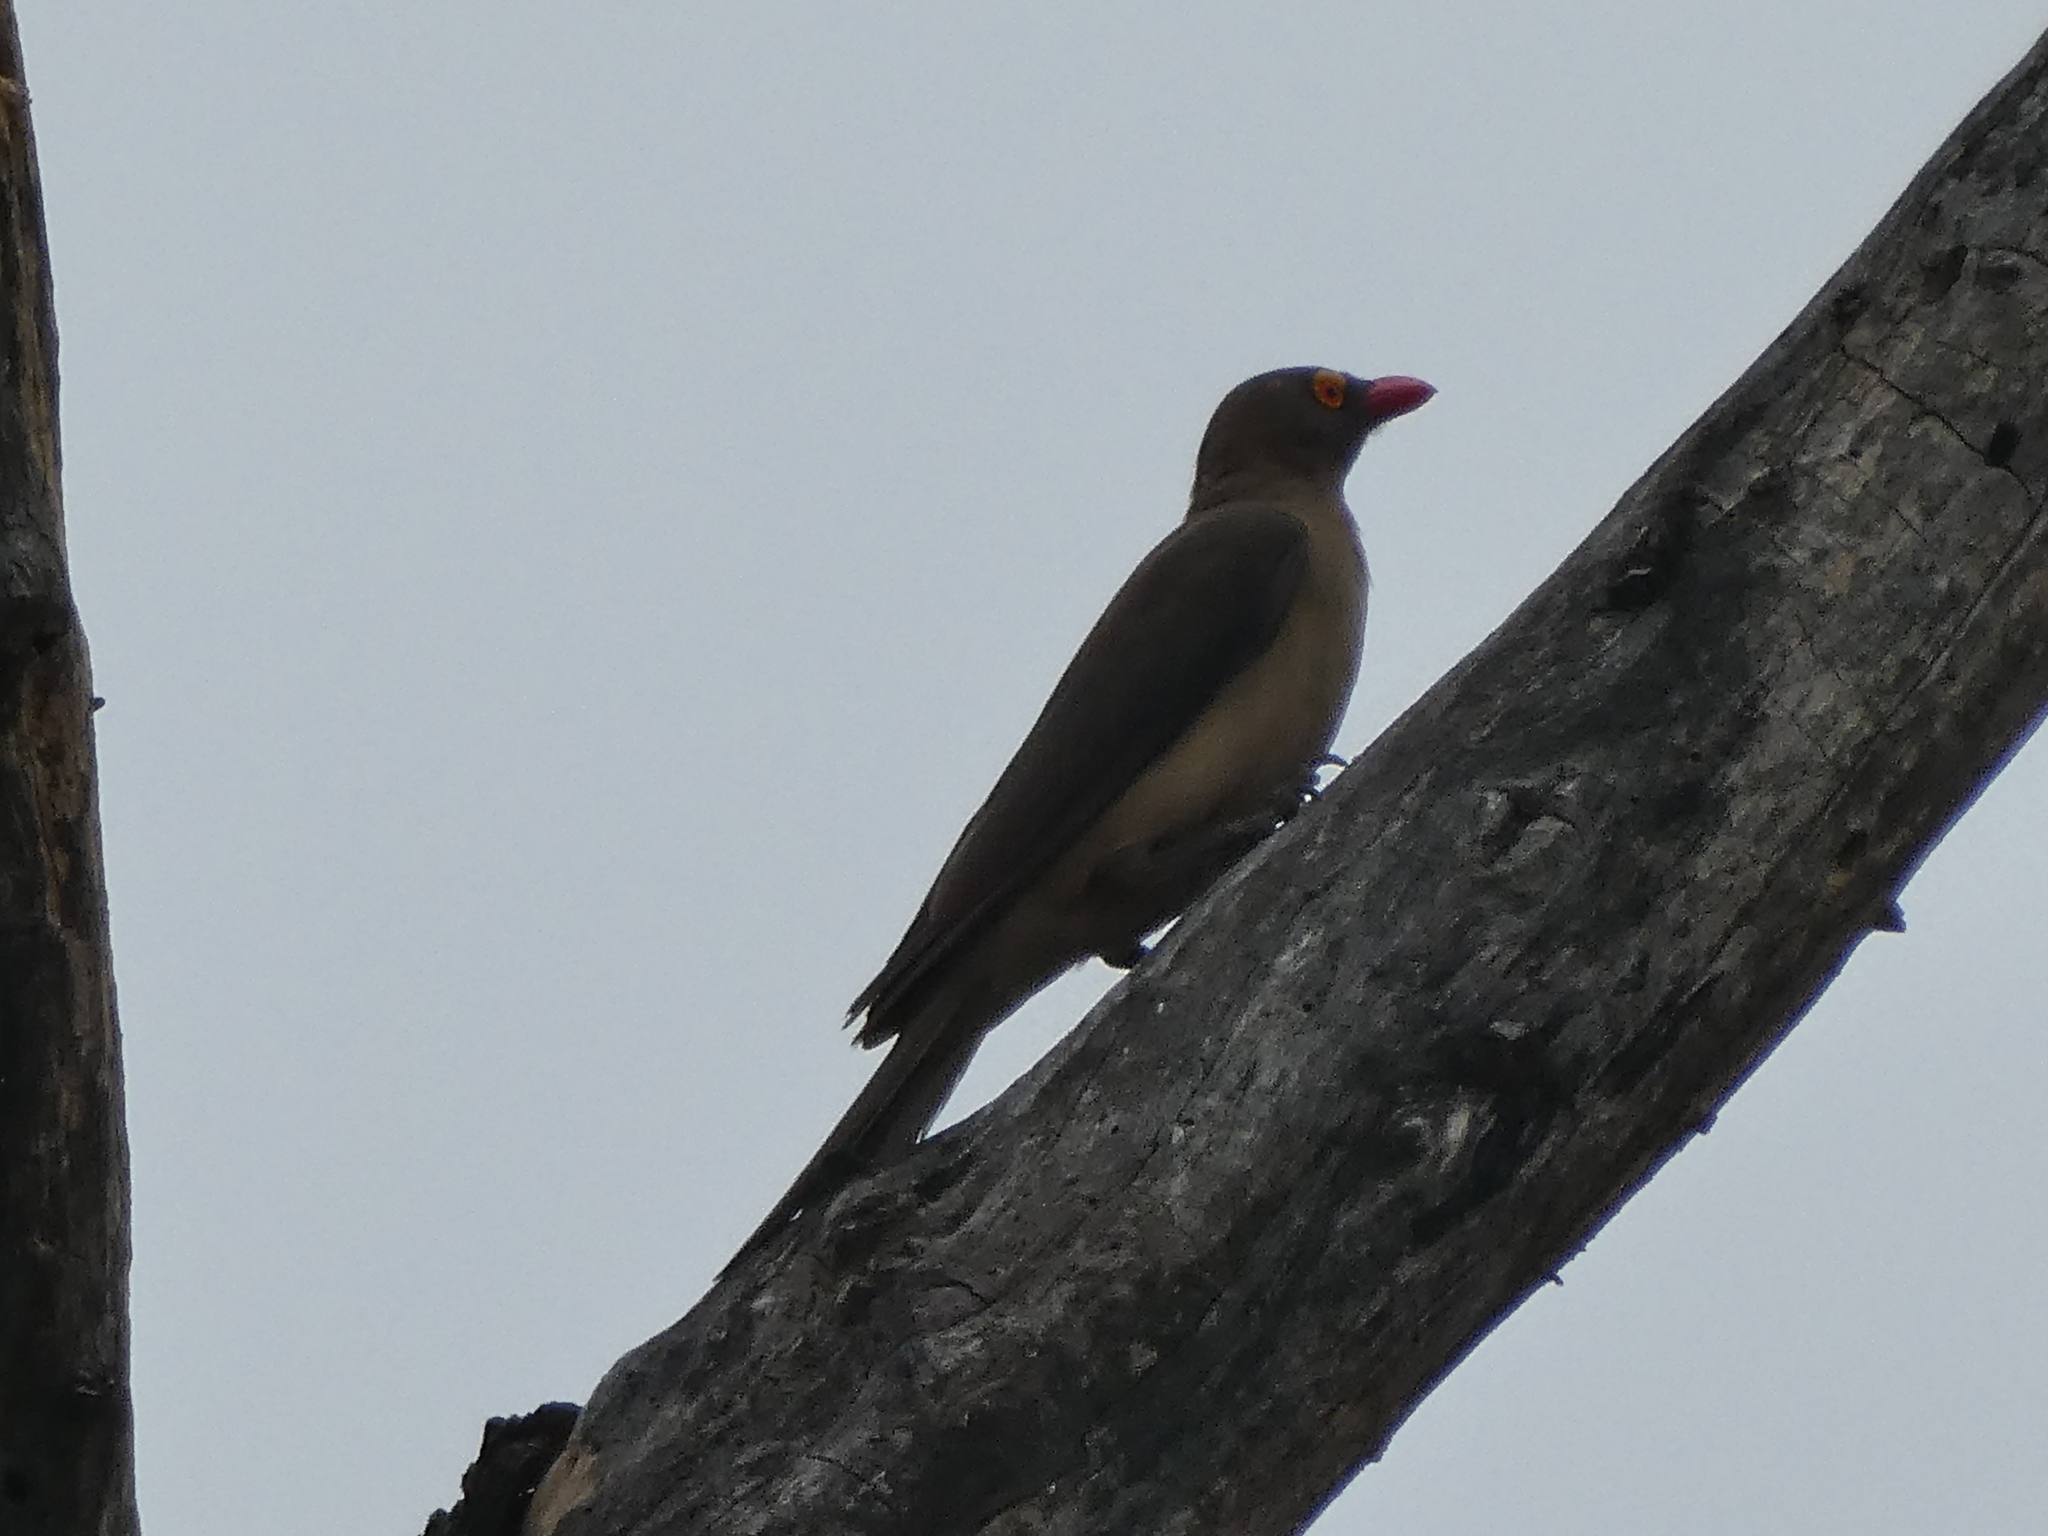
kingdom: Animalia
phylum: Chordata
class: Aves
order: Passeriformes
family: Buphagidae
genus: Buphagus
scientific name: Buphagus erythrorhynchus
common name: Red-billed oxpecker
